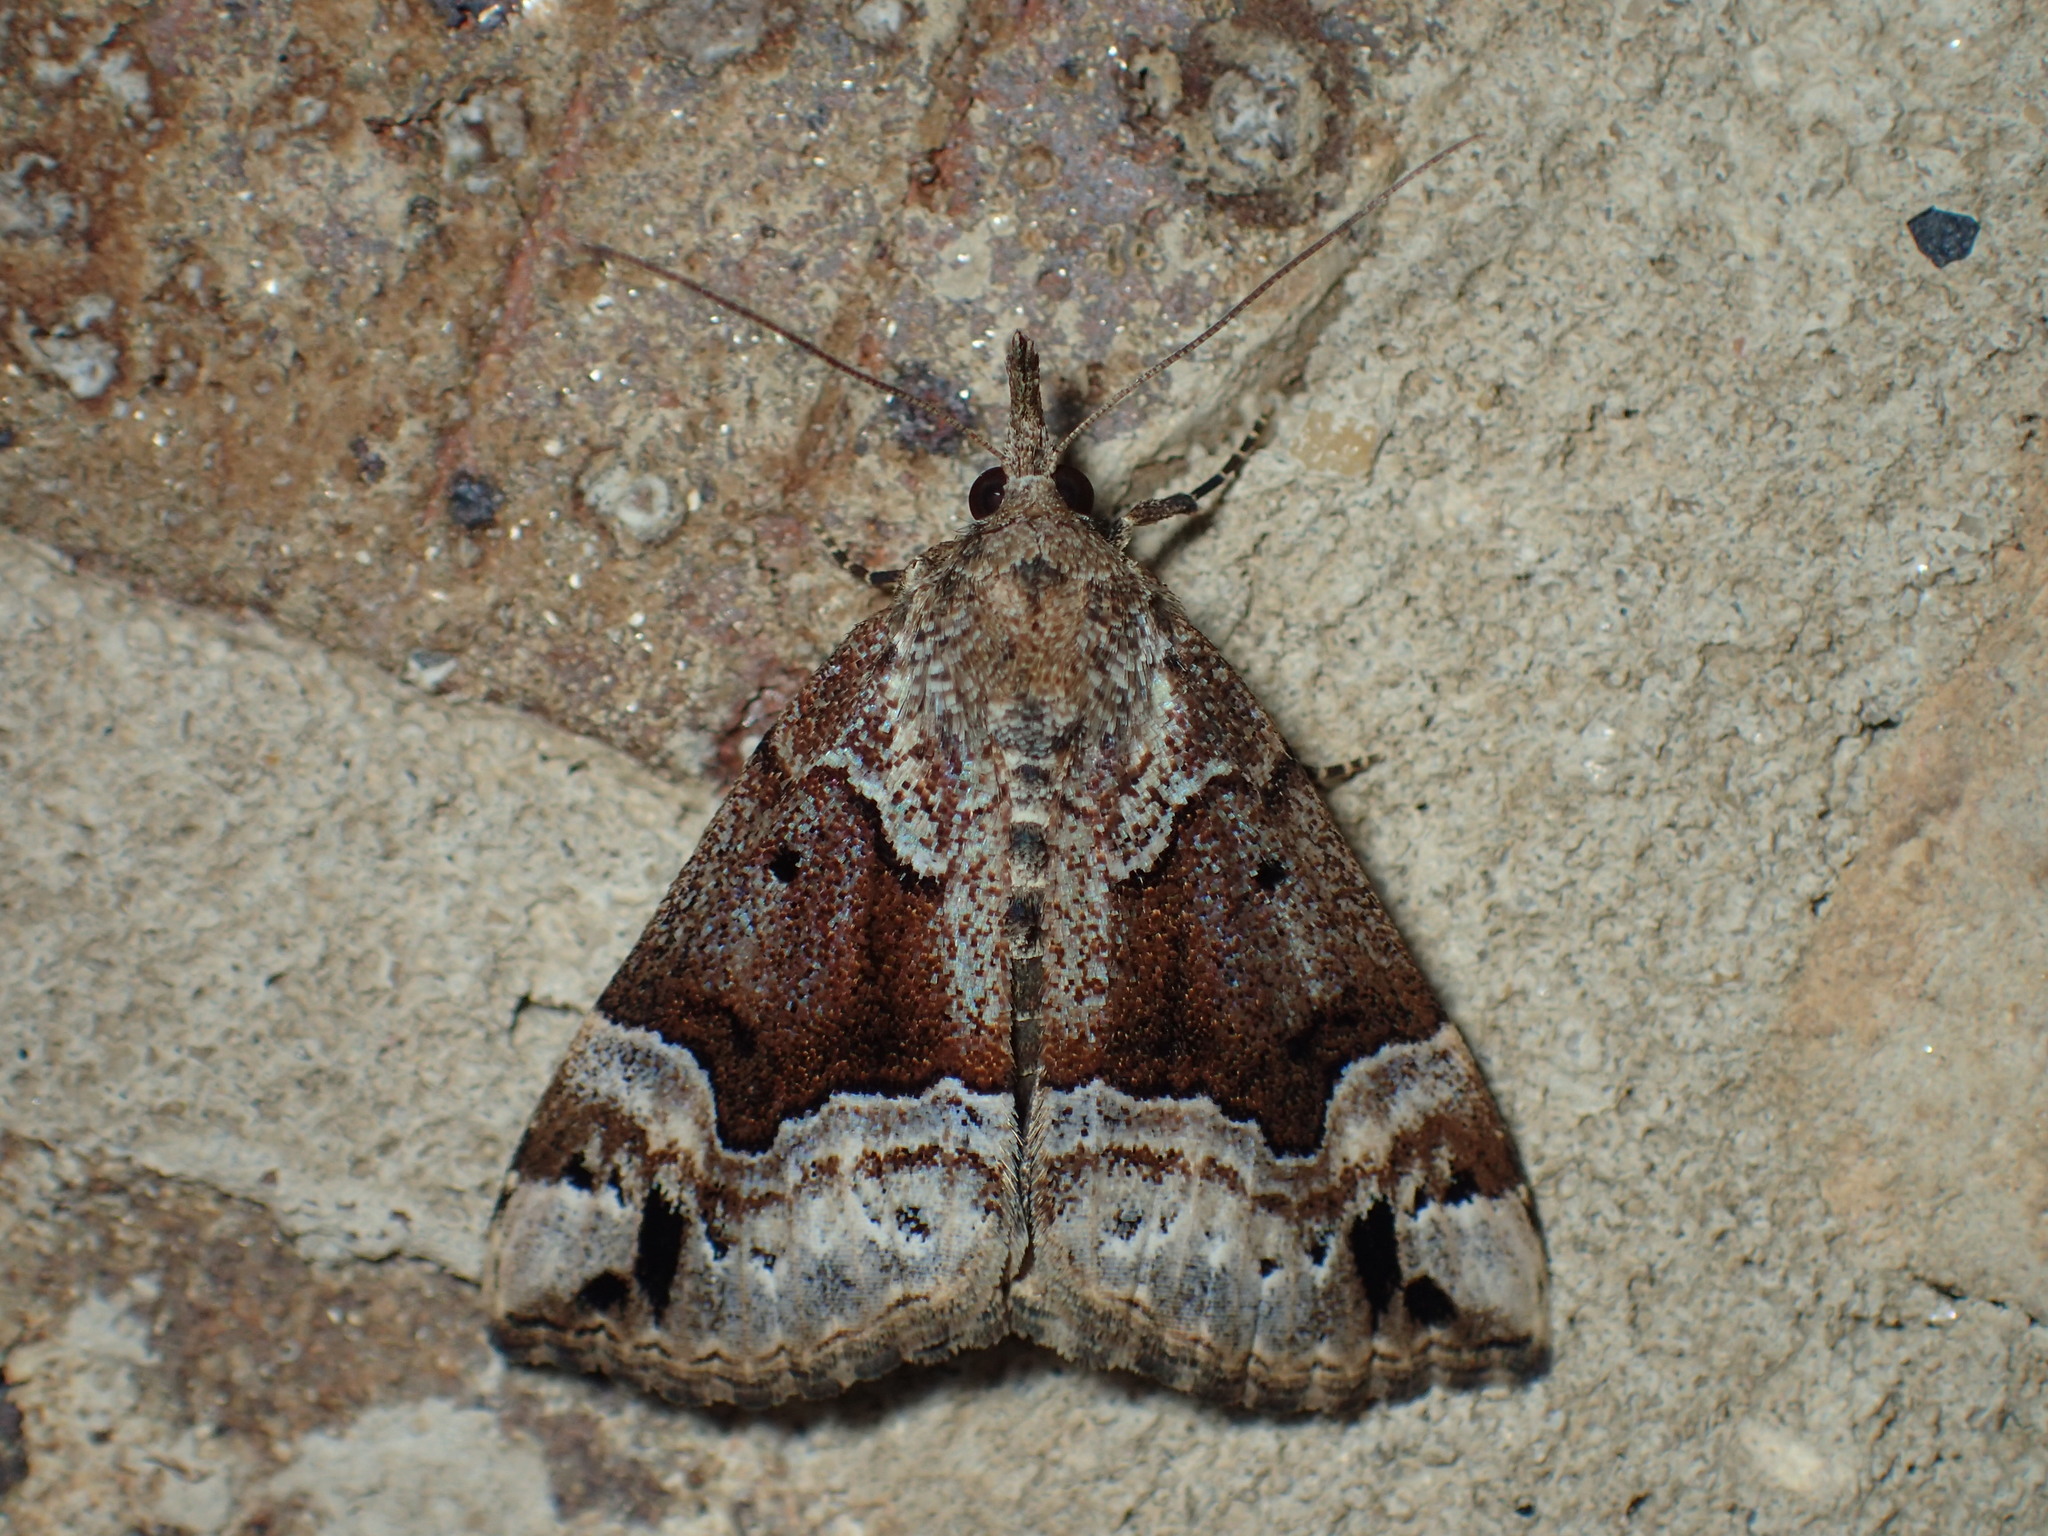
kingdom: Animalia
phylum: Arthropoda
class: Insecta
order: Lepidoptera
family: Erebidae
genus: Hypena
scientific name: Hypena palparia
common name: Mottled bomolocha moth
